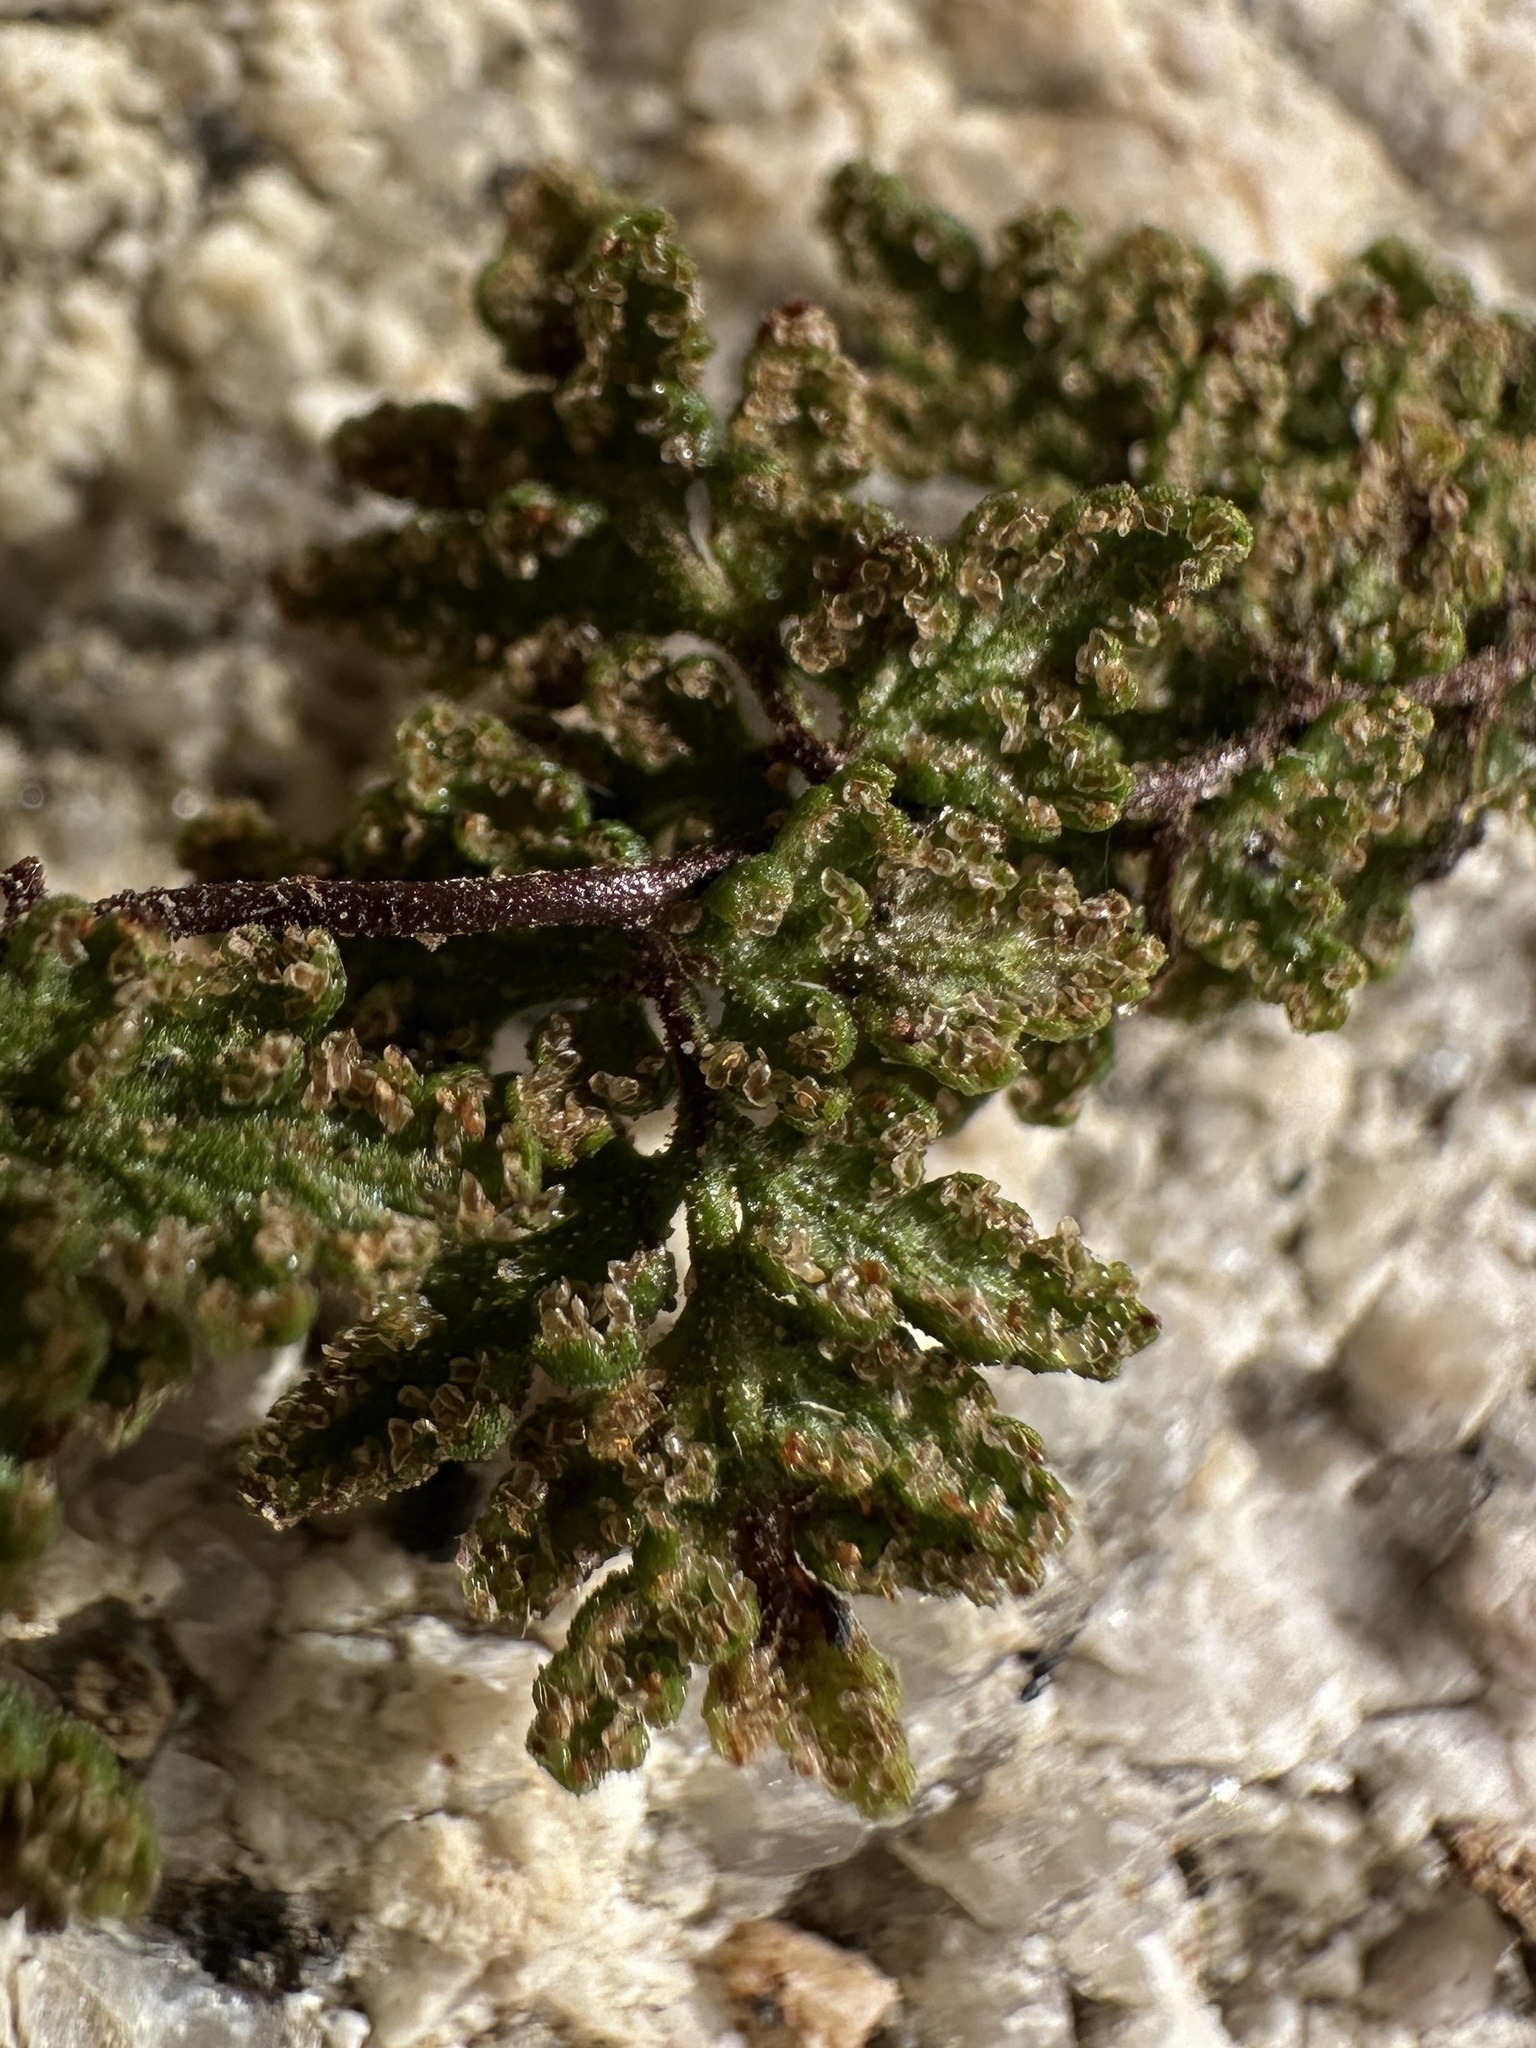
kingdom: Plantae
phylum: Tracheophyta
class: Polypodiopsida
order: Polypodiales
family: Pteridaceae
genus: Myriopteris
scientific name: Myriopteris viscida
